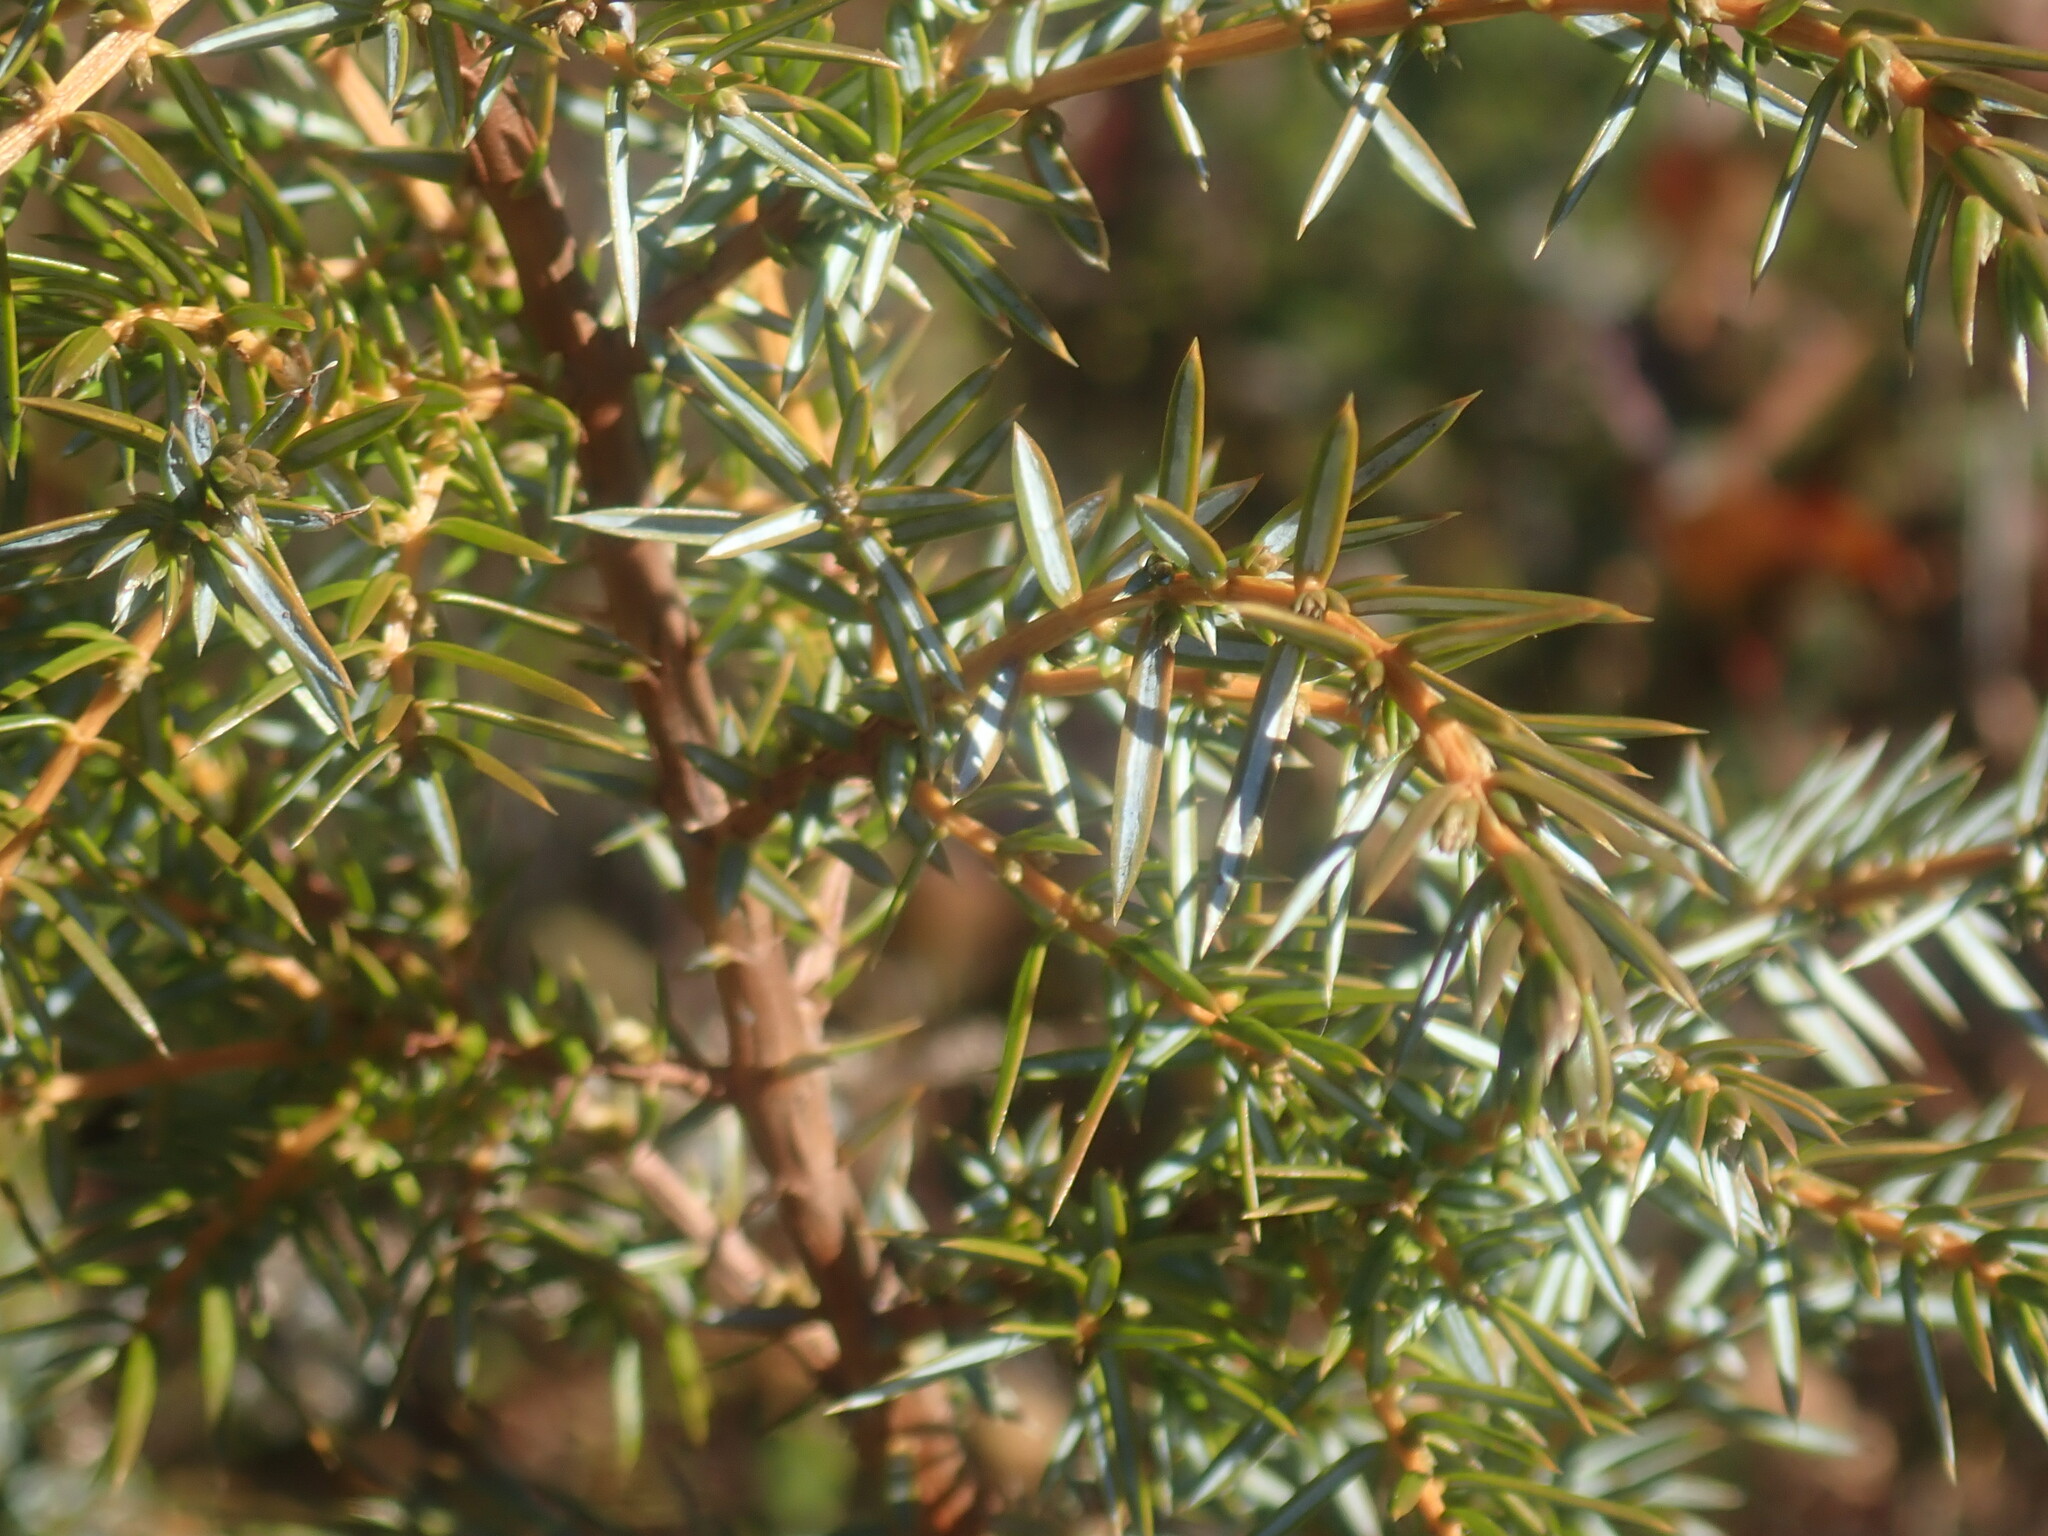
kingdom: Plantae
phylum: Tracheophyta
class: Pinopsida
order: Pinales
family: Cupressaceae
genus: Juniperus
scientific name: Juniperus communis
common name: Common juniper
